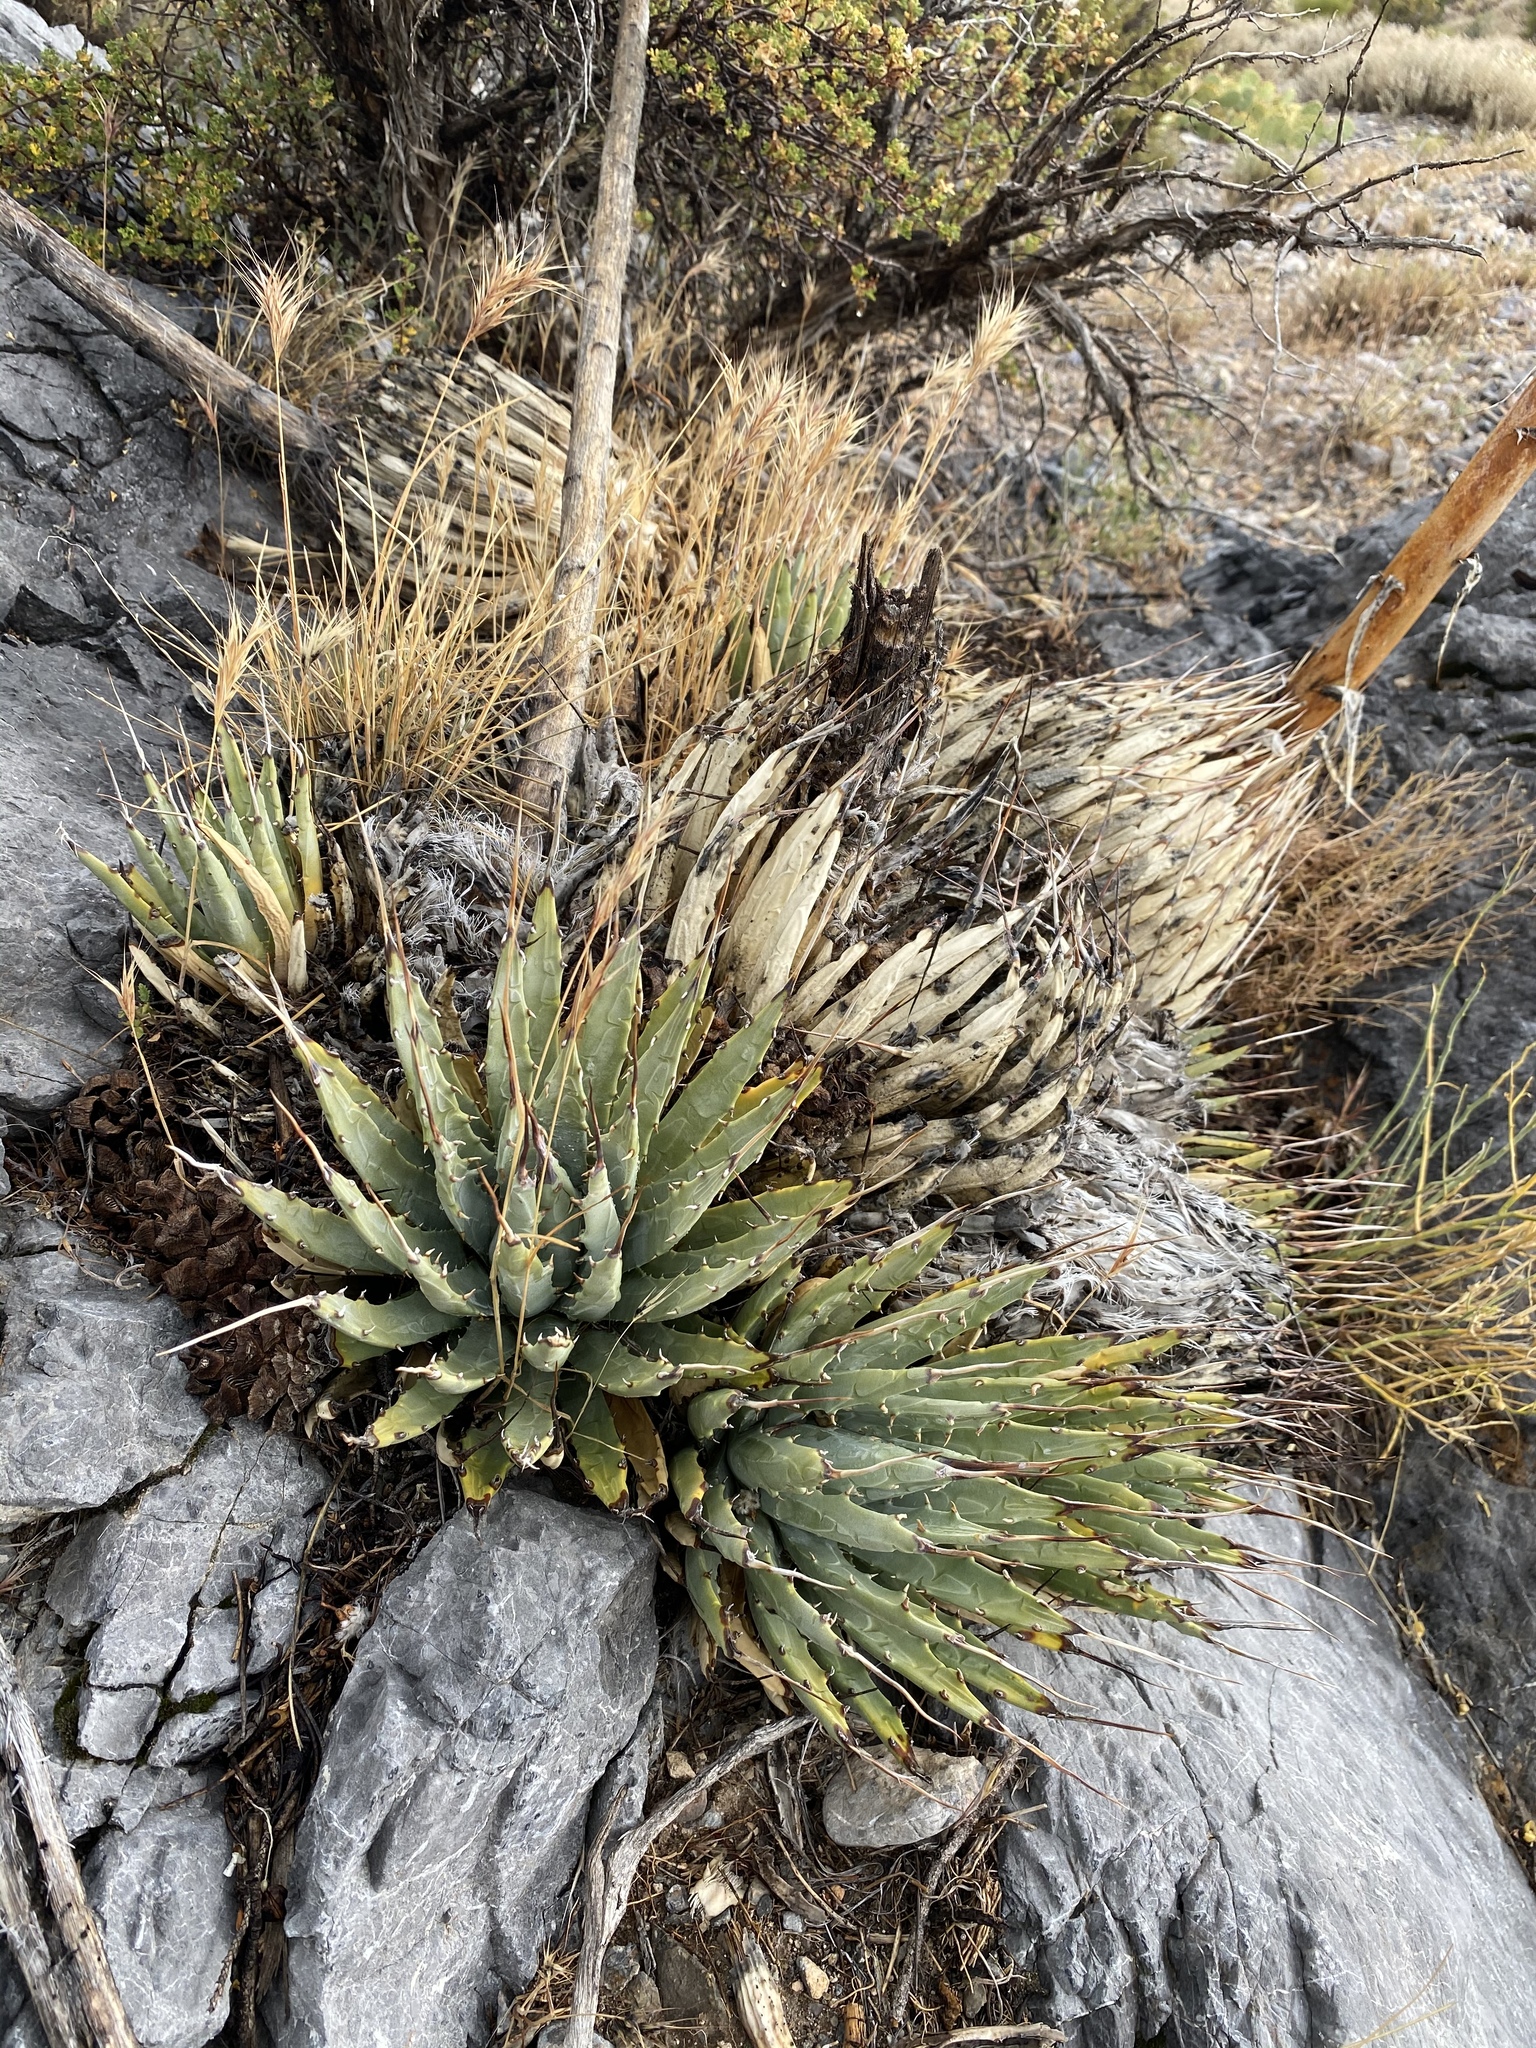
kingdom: Plantae
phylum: Tracheophyta
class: Liliopsida
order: Asparagales
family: Asparagaceae
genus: Agave
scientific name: Agave utahensis
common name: Utah agave
